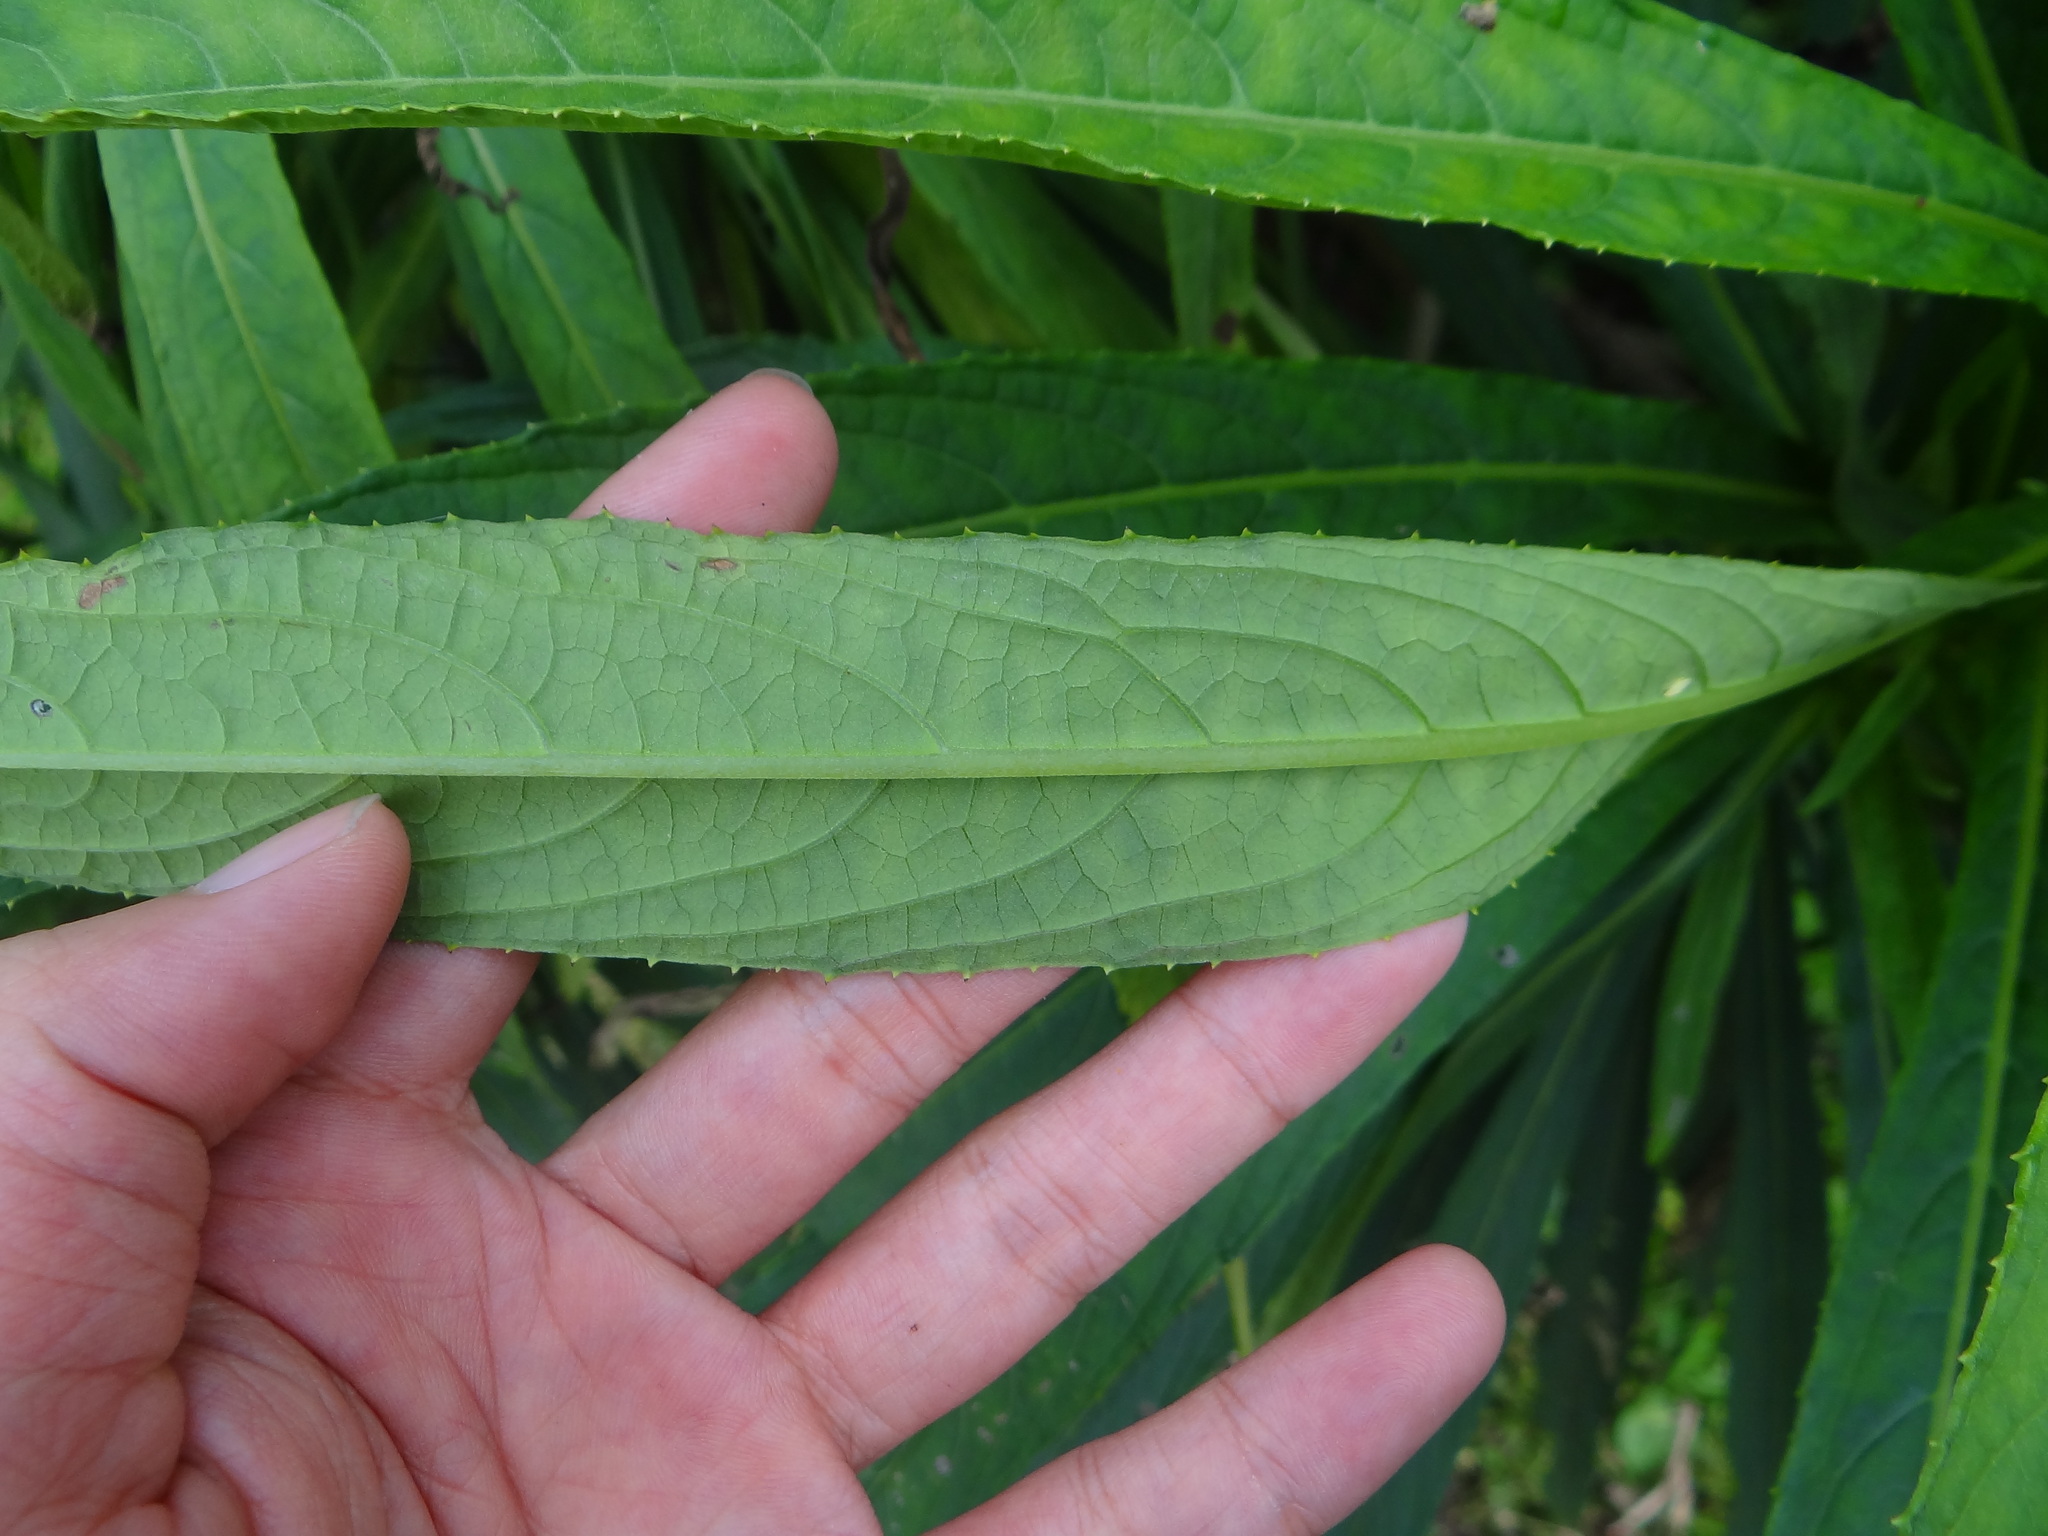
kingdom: Plantae
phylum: Tracheophyta
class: Magnoliopsida
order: Asterales
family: Asteraceae
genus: Blumea
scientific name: Blumea linearis
